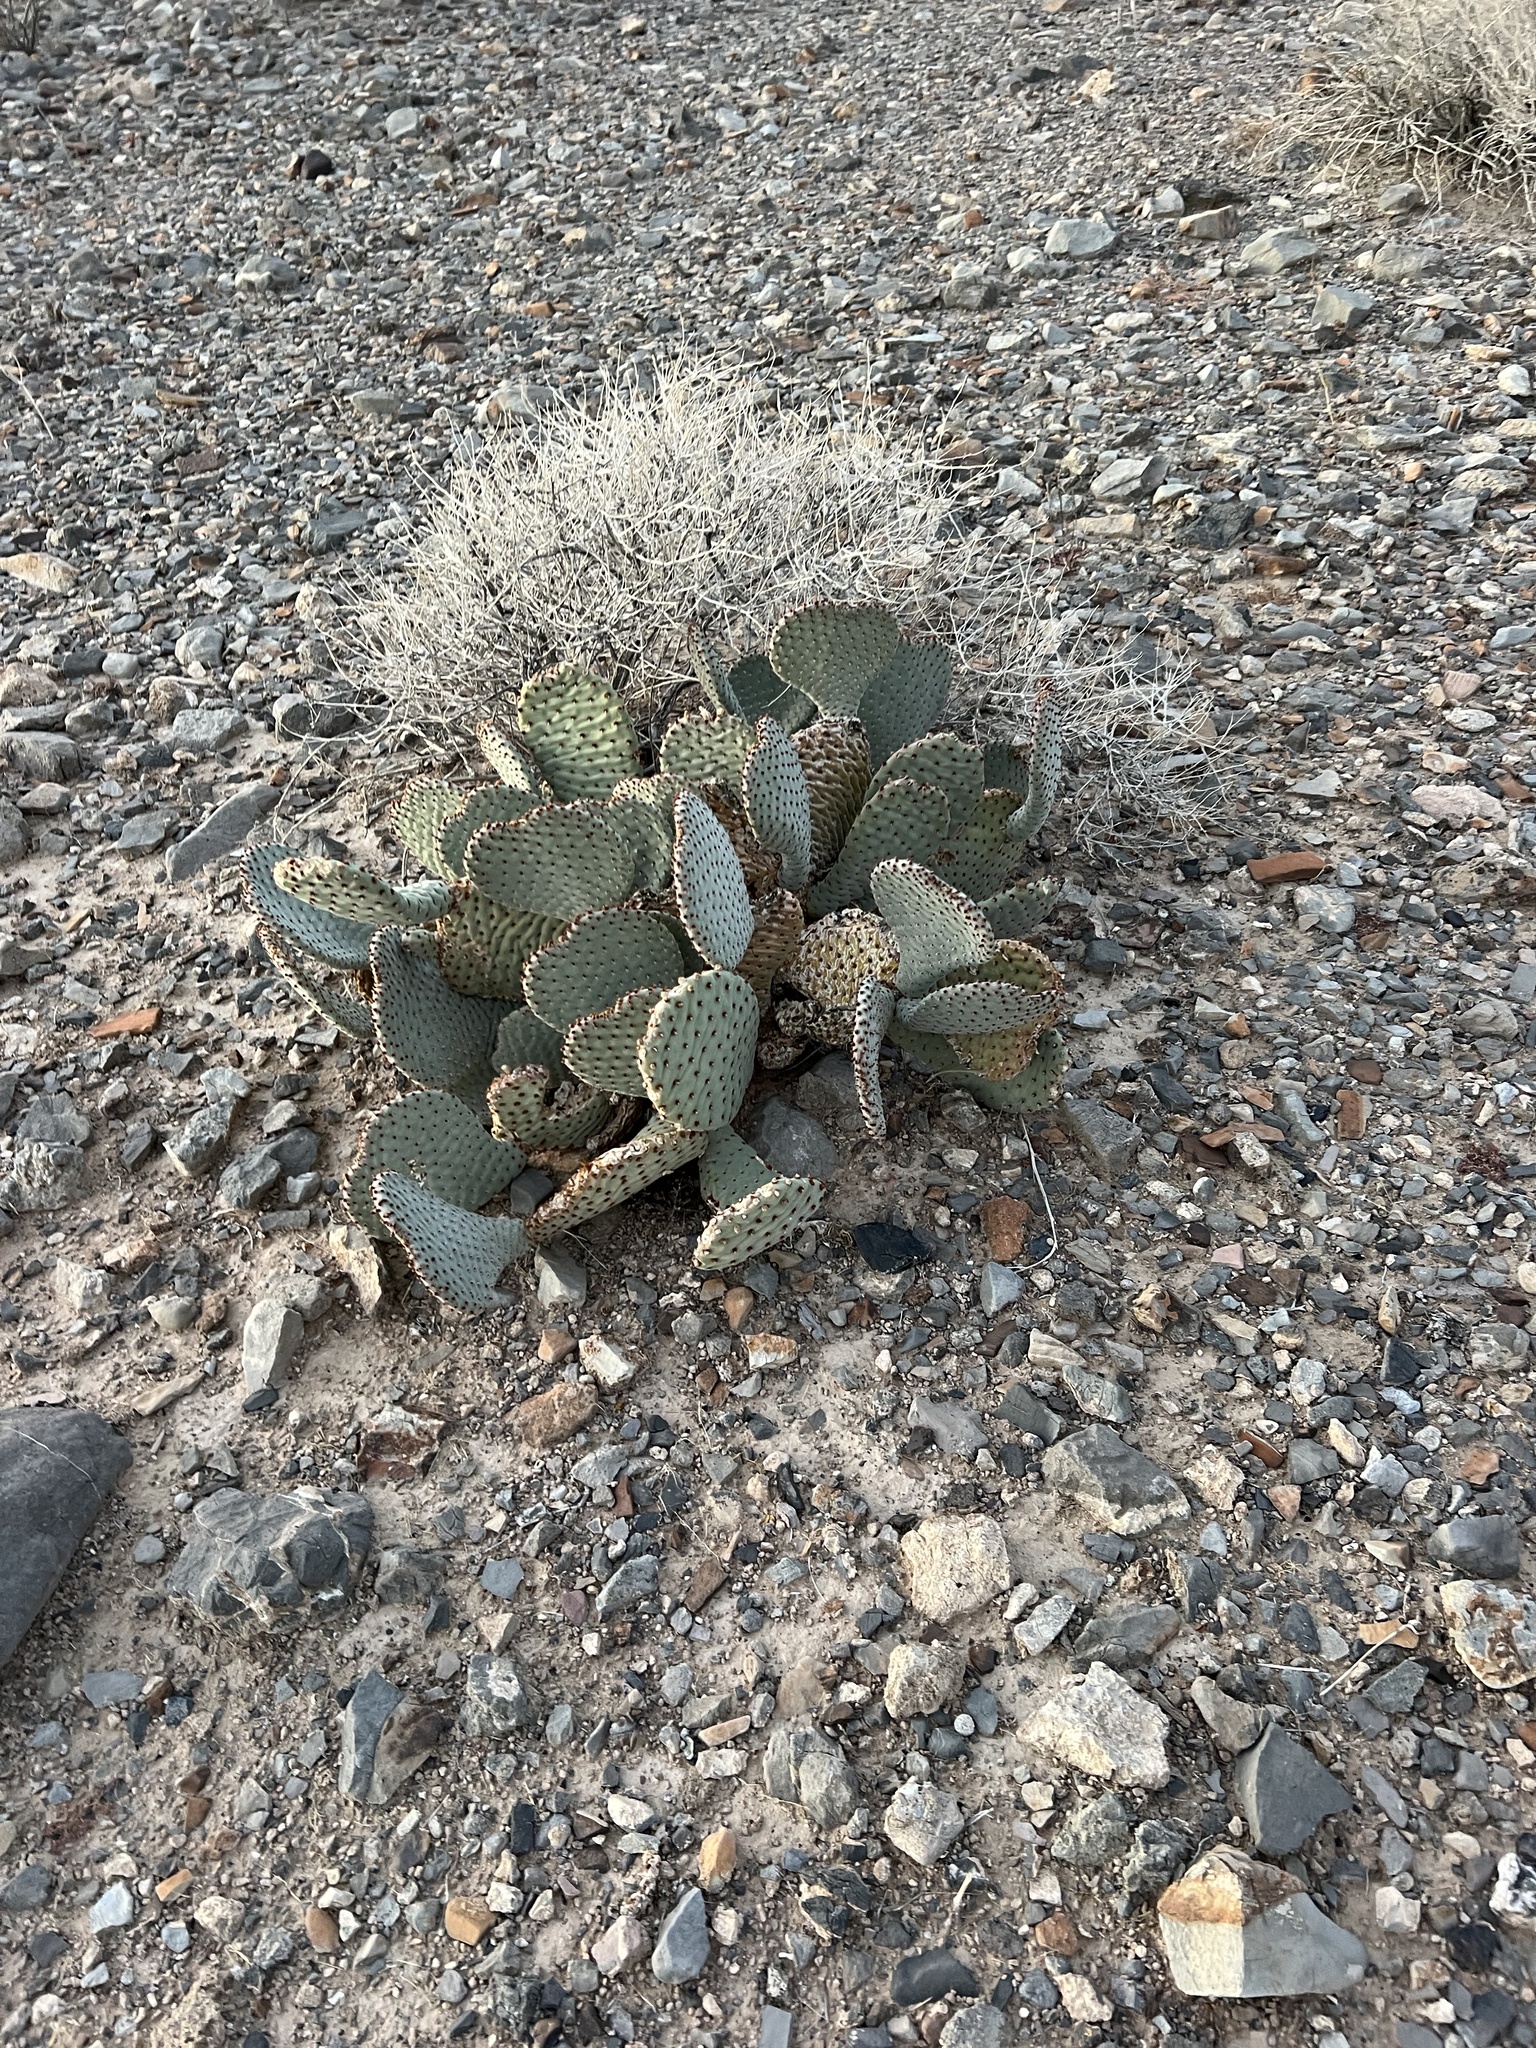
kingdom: Plantae
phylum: Tracheophyta
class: Magnoliopsida
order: Caryophyllales
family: Cactaceae
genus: Opuntia
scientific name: Opuntia basilaris
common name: Beavertail prickly-pear
